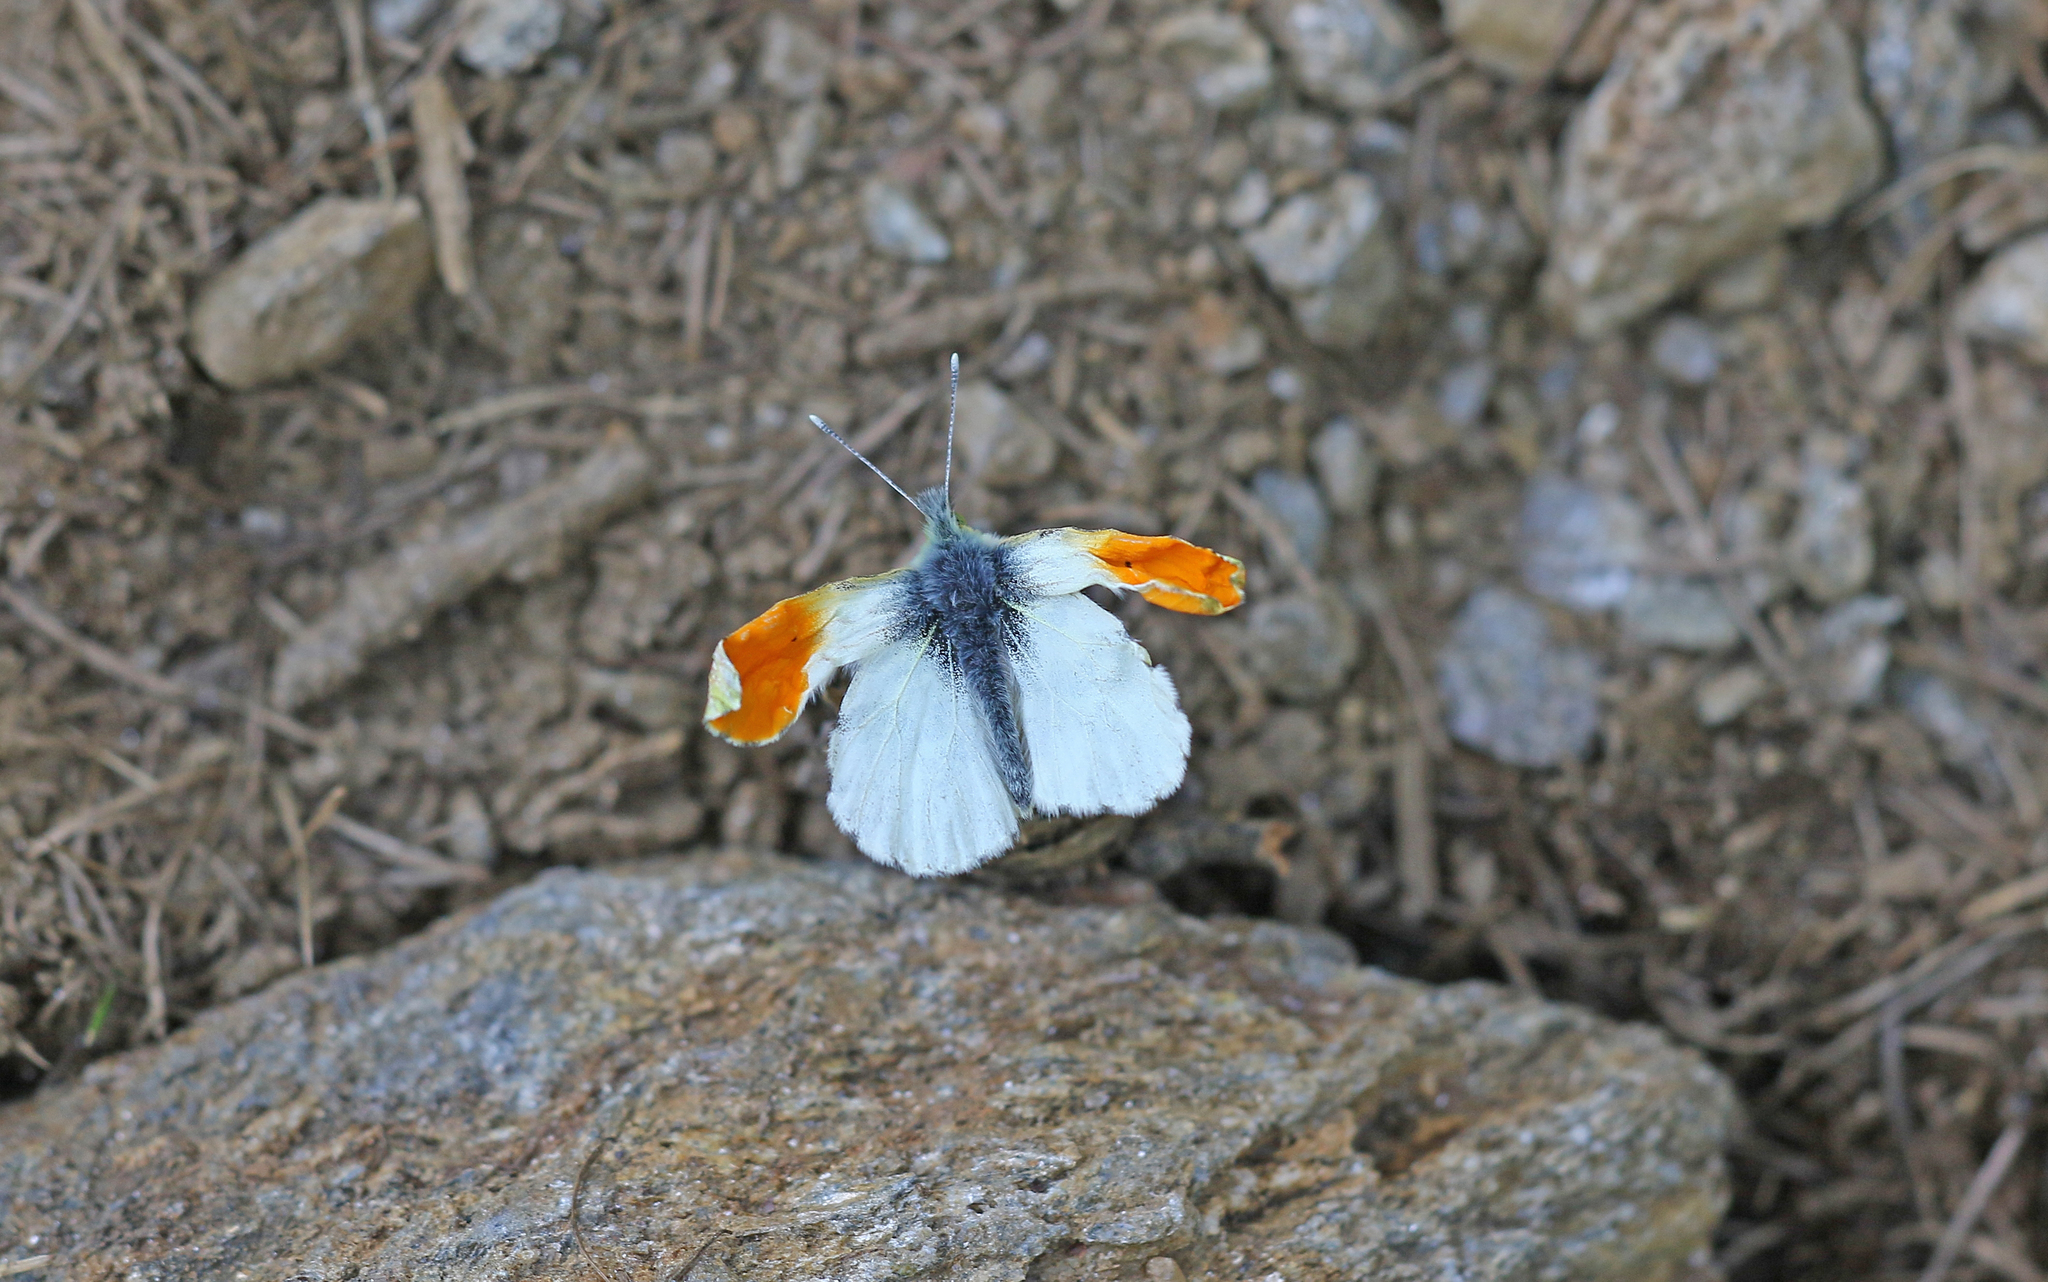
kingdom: Animalia
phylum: Arthropoda
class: Insecta
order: Lepidoptera
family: Pieridae
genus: Anthocharis
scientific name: Anthocharis cardamines
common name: Orange-tip
